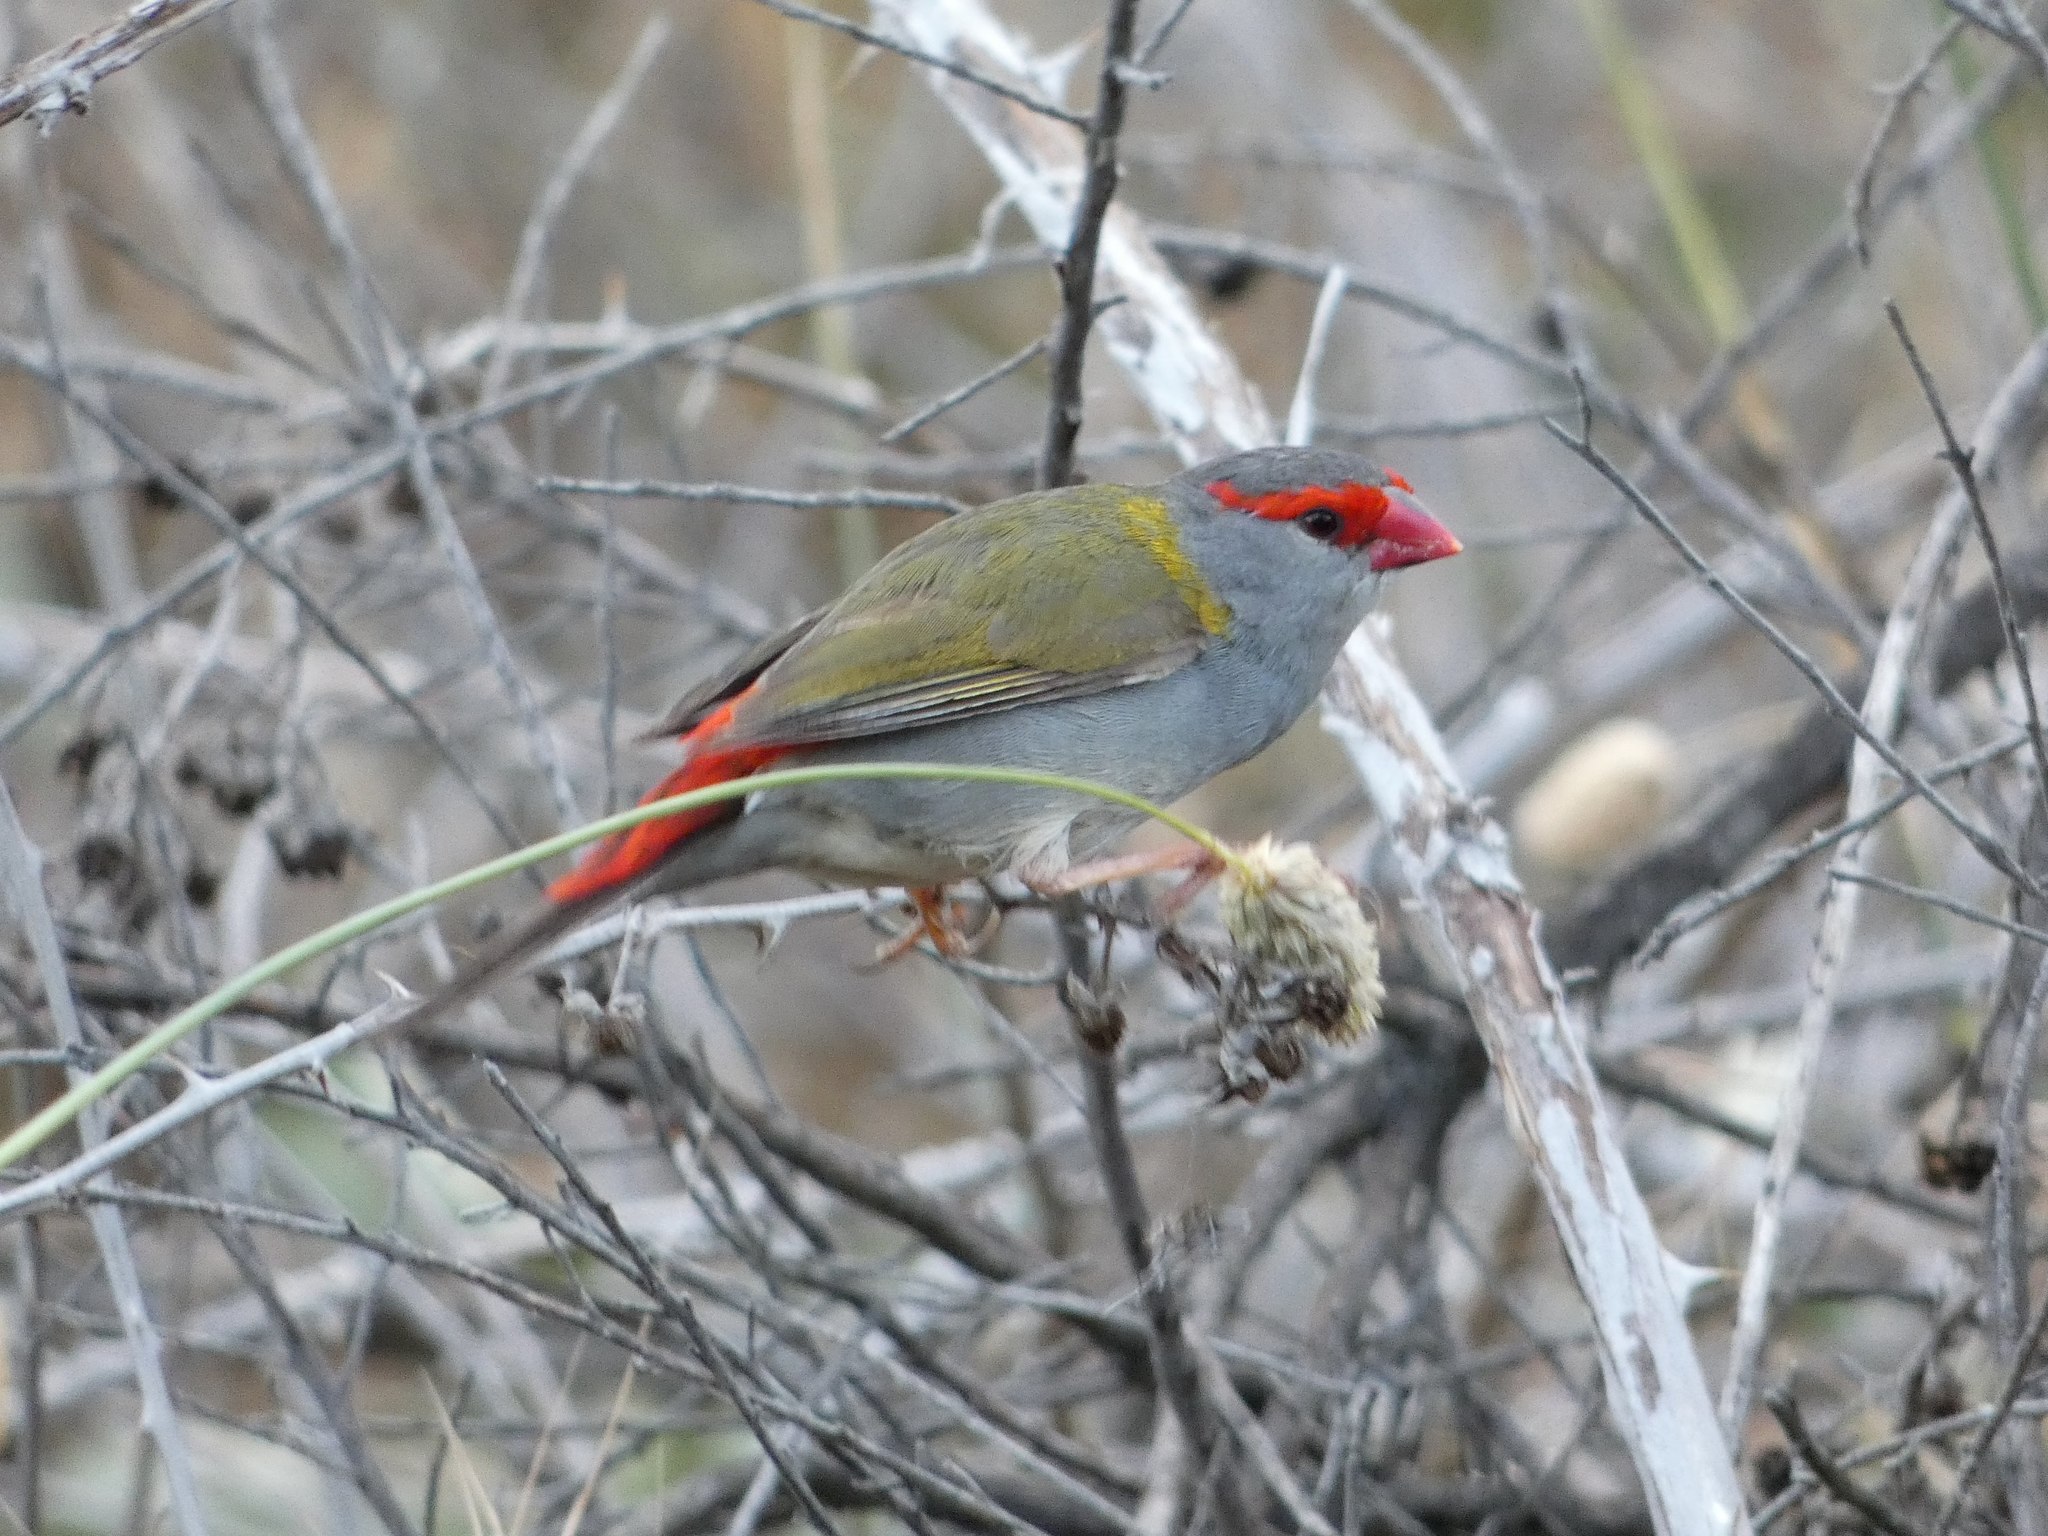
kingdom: Animalia
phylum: Chordata
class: Aves
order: Passeriformes
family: Estrildidae
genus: Neochmia
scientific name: Neochmia temporalis
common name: Red-browed finch
